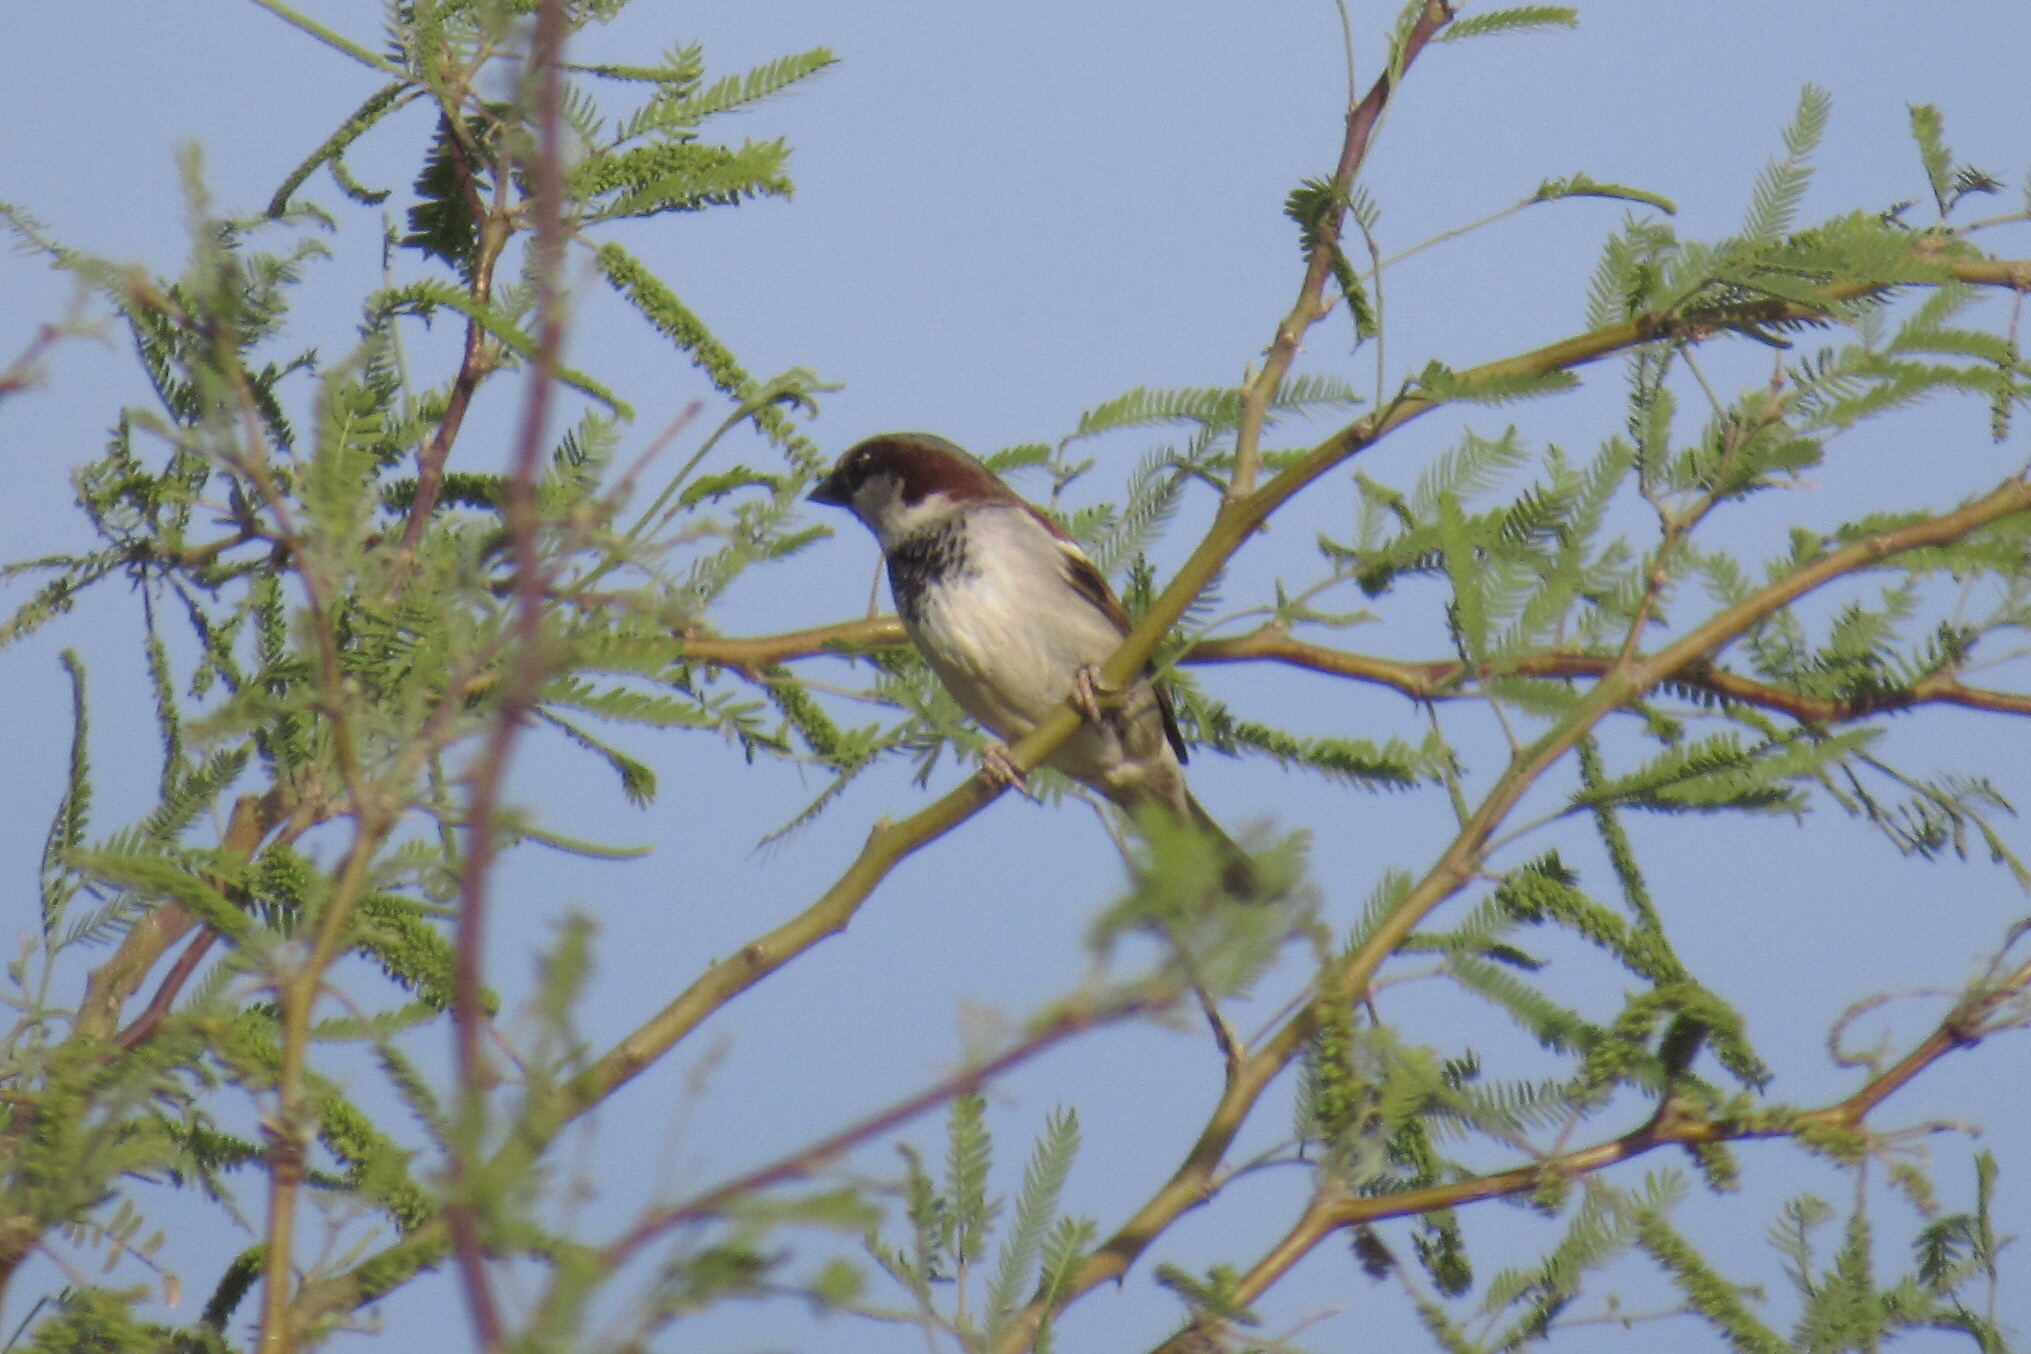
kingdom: Animalia
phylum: Chordata
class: Aves
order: Passeriformes
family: Passeridae
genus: Passer
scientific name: Passer domesticus
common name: House sparrow
